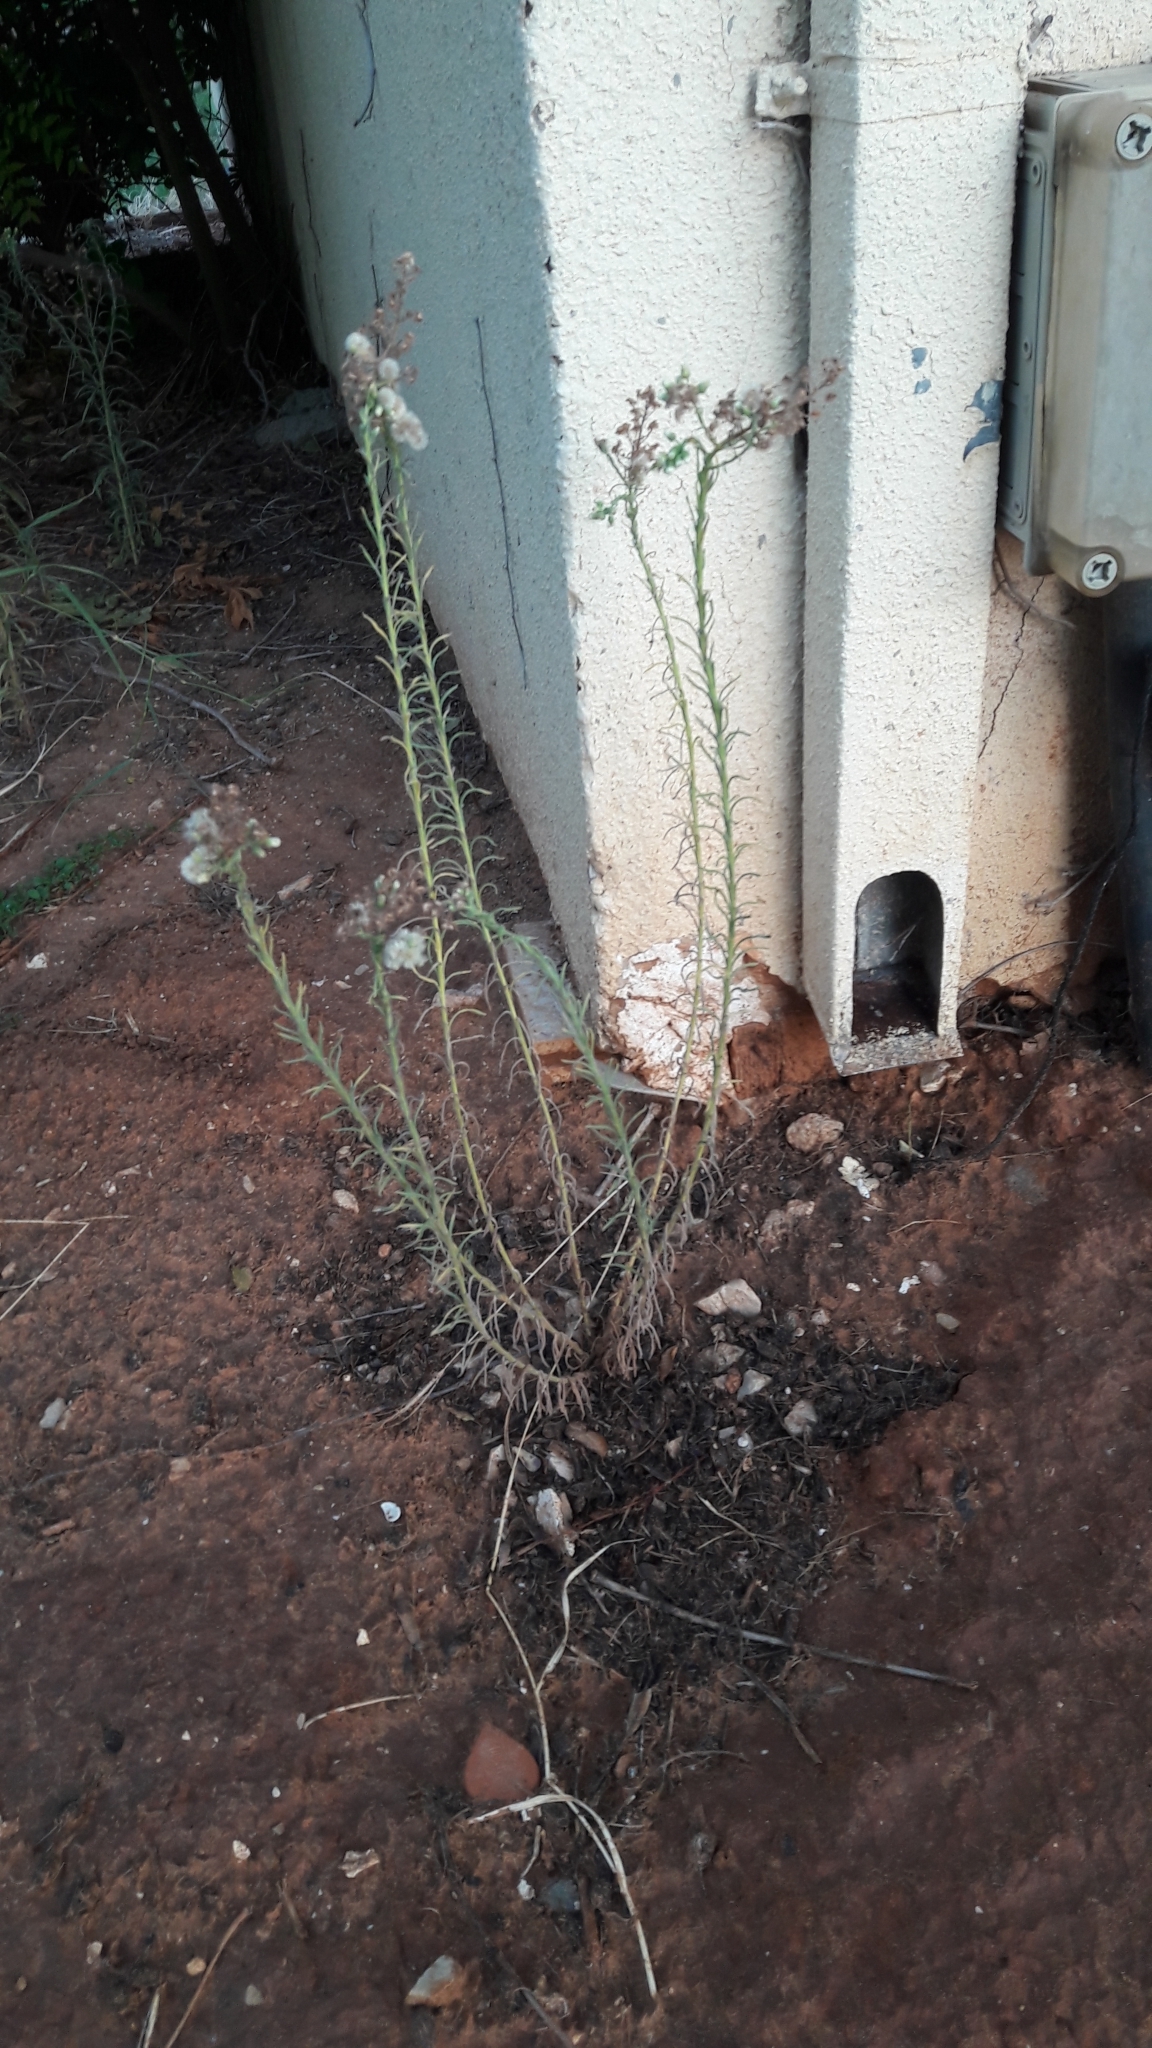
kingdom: Plantae
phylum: Tracheophyta
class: Magnoliopsida
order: Asterales
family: Asteraceae
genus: Erigeron
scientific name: Erigeron canadensis
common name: Canadian fleabane
